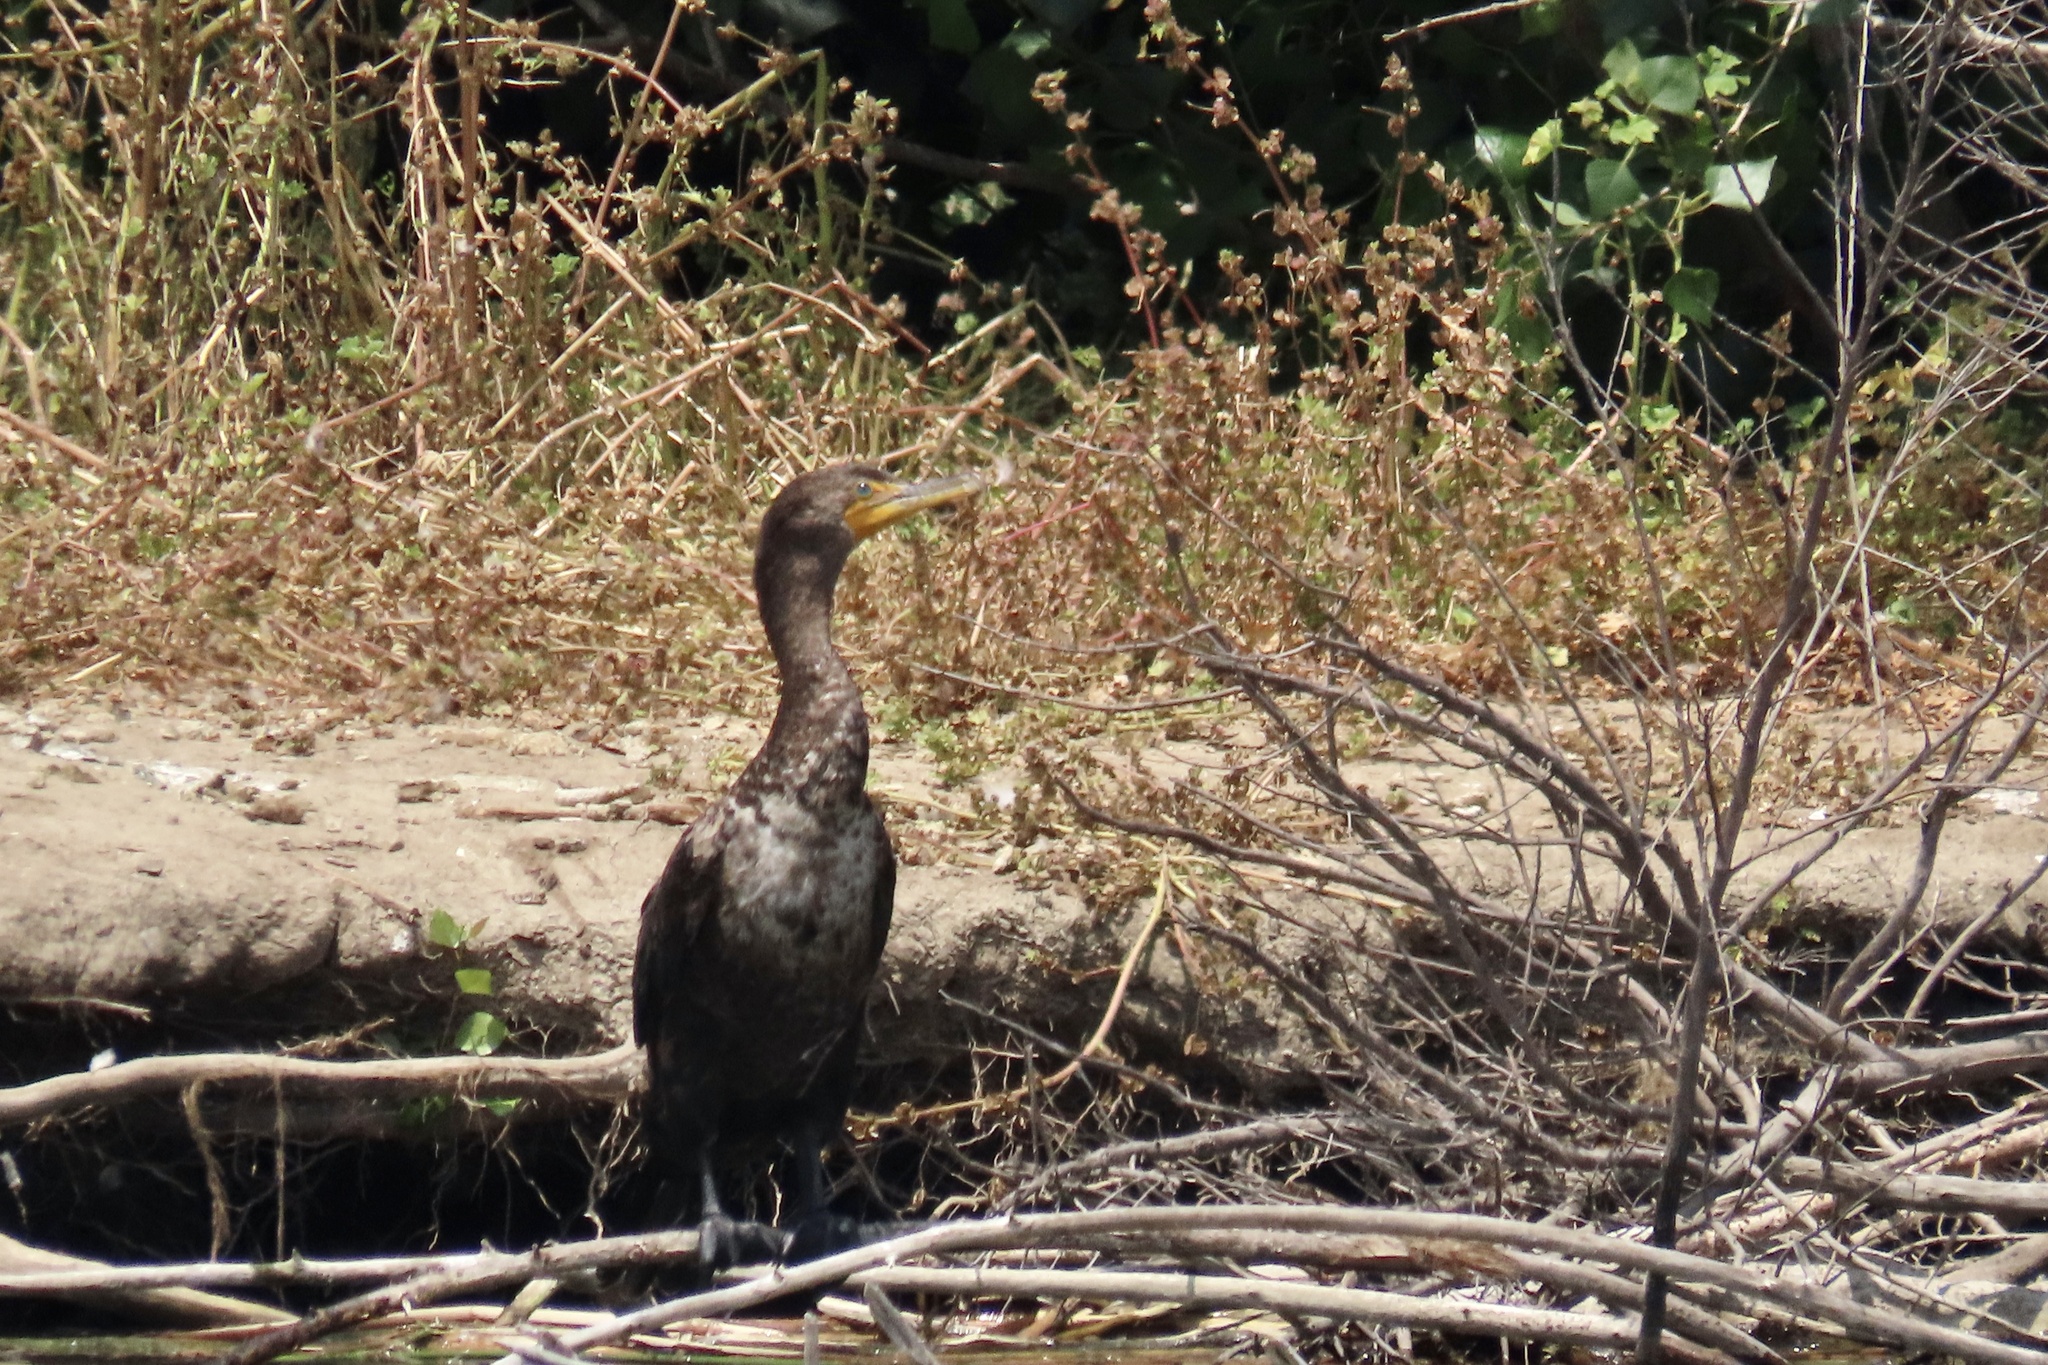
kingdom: Animalia
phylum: Chordata
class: Aves
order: Suliformes
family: Phalacrocoracidae
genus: Phalacrocorax
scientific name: Phalacrocorax auritus
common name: Double-crested cormorant
